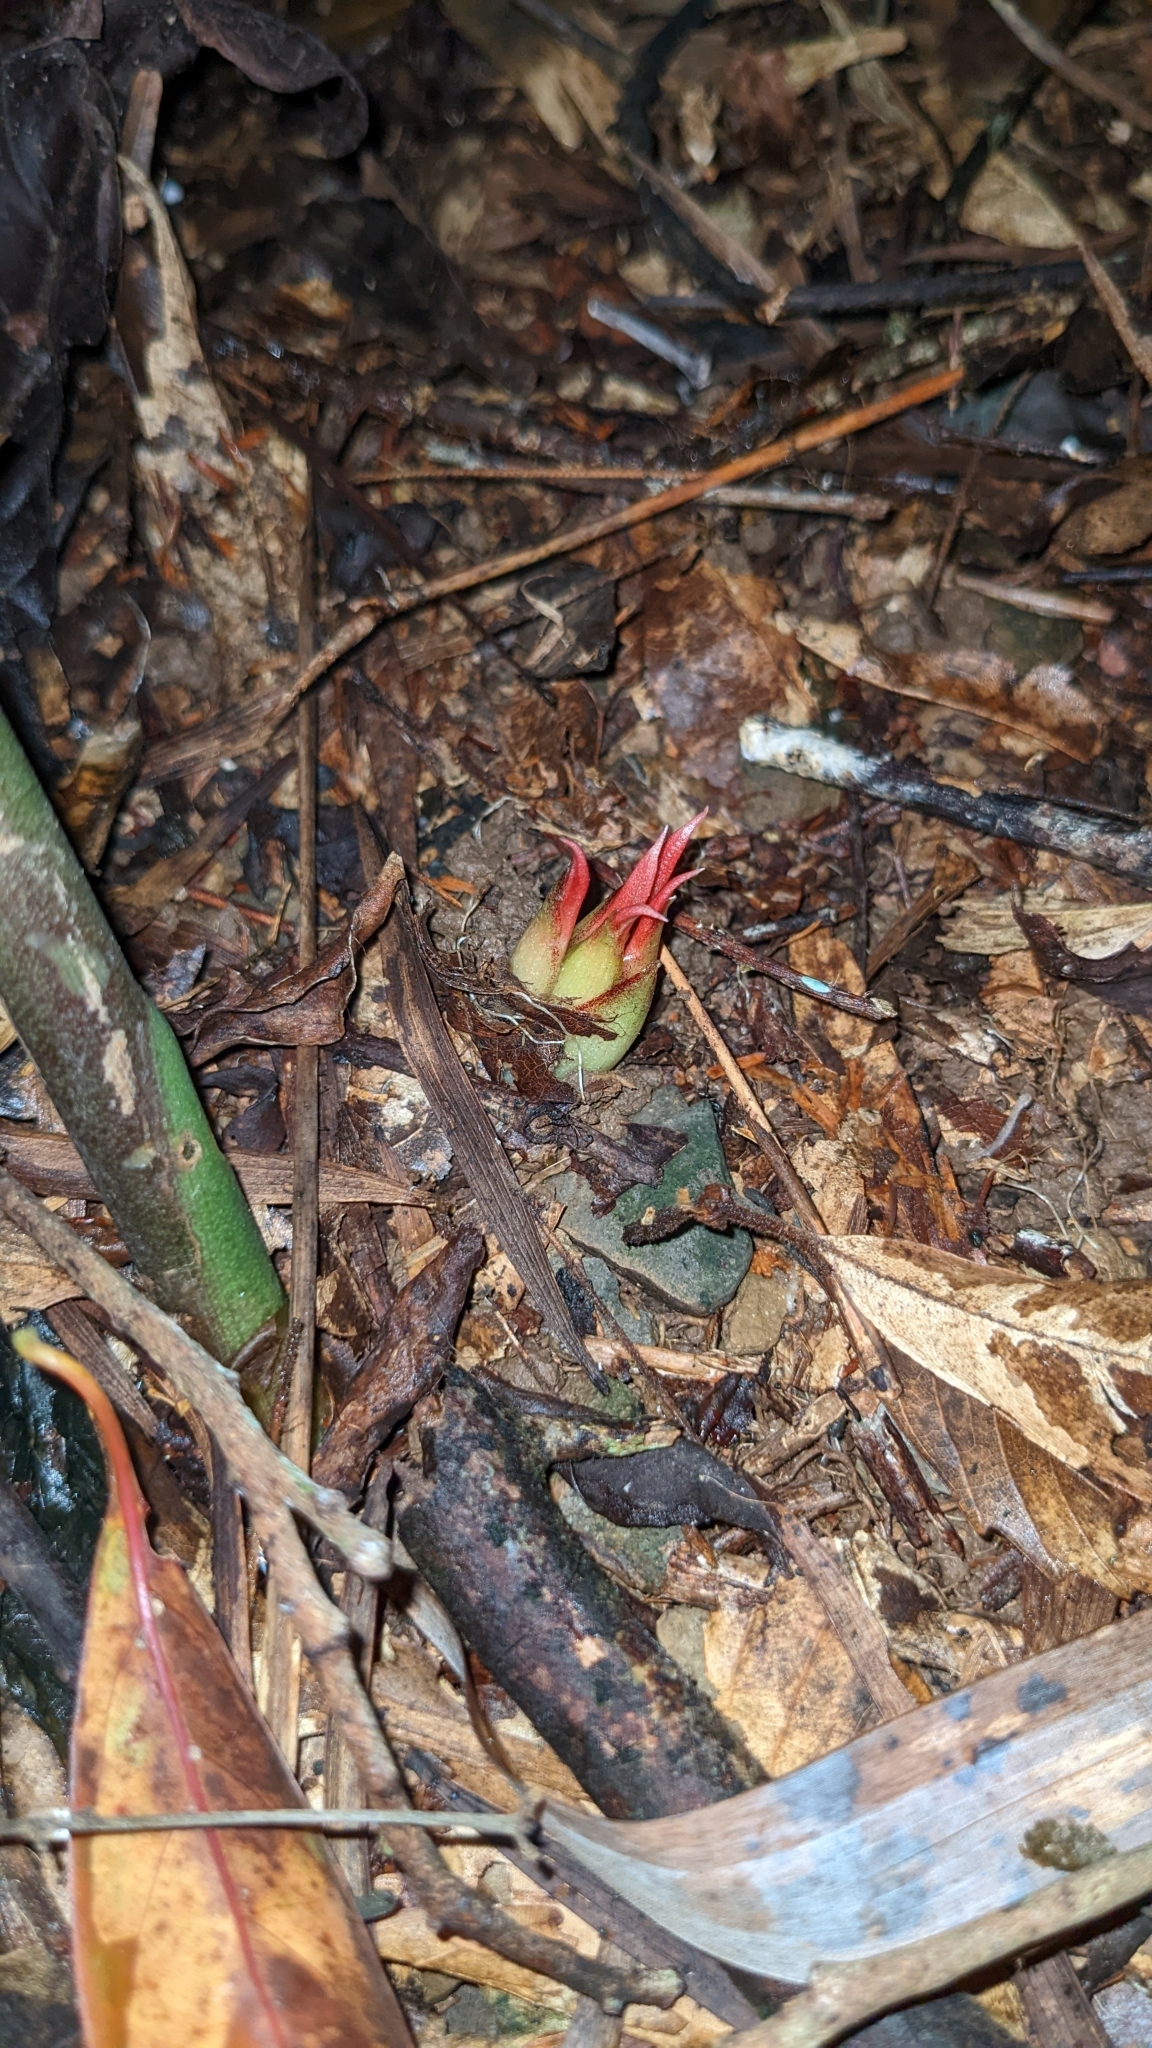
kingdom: Plantae
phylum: Tracheophyta
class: Liliopsida
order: Zingiberales
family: Zingiberaceae
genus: Zingiber
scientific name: Zingiber kawagoii
